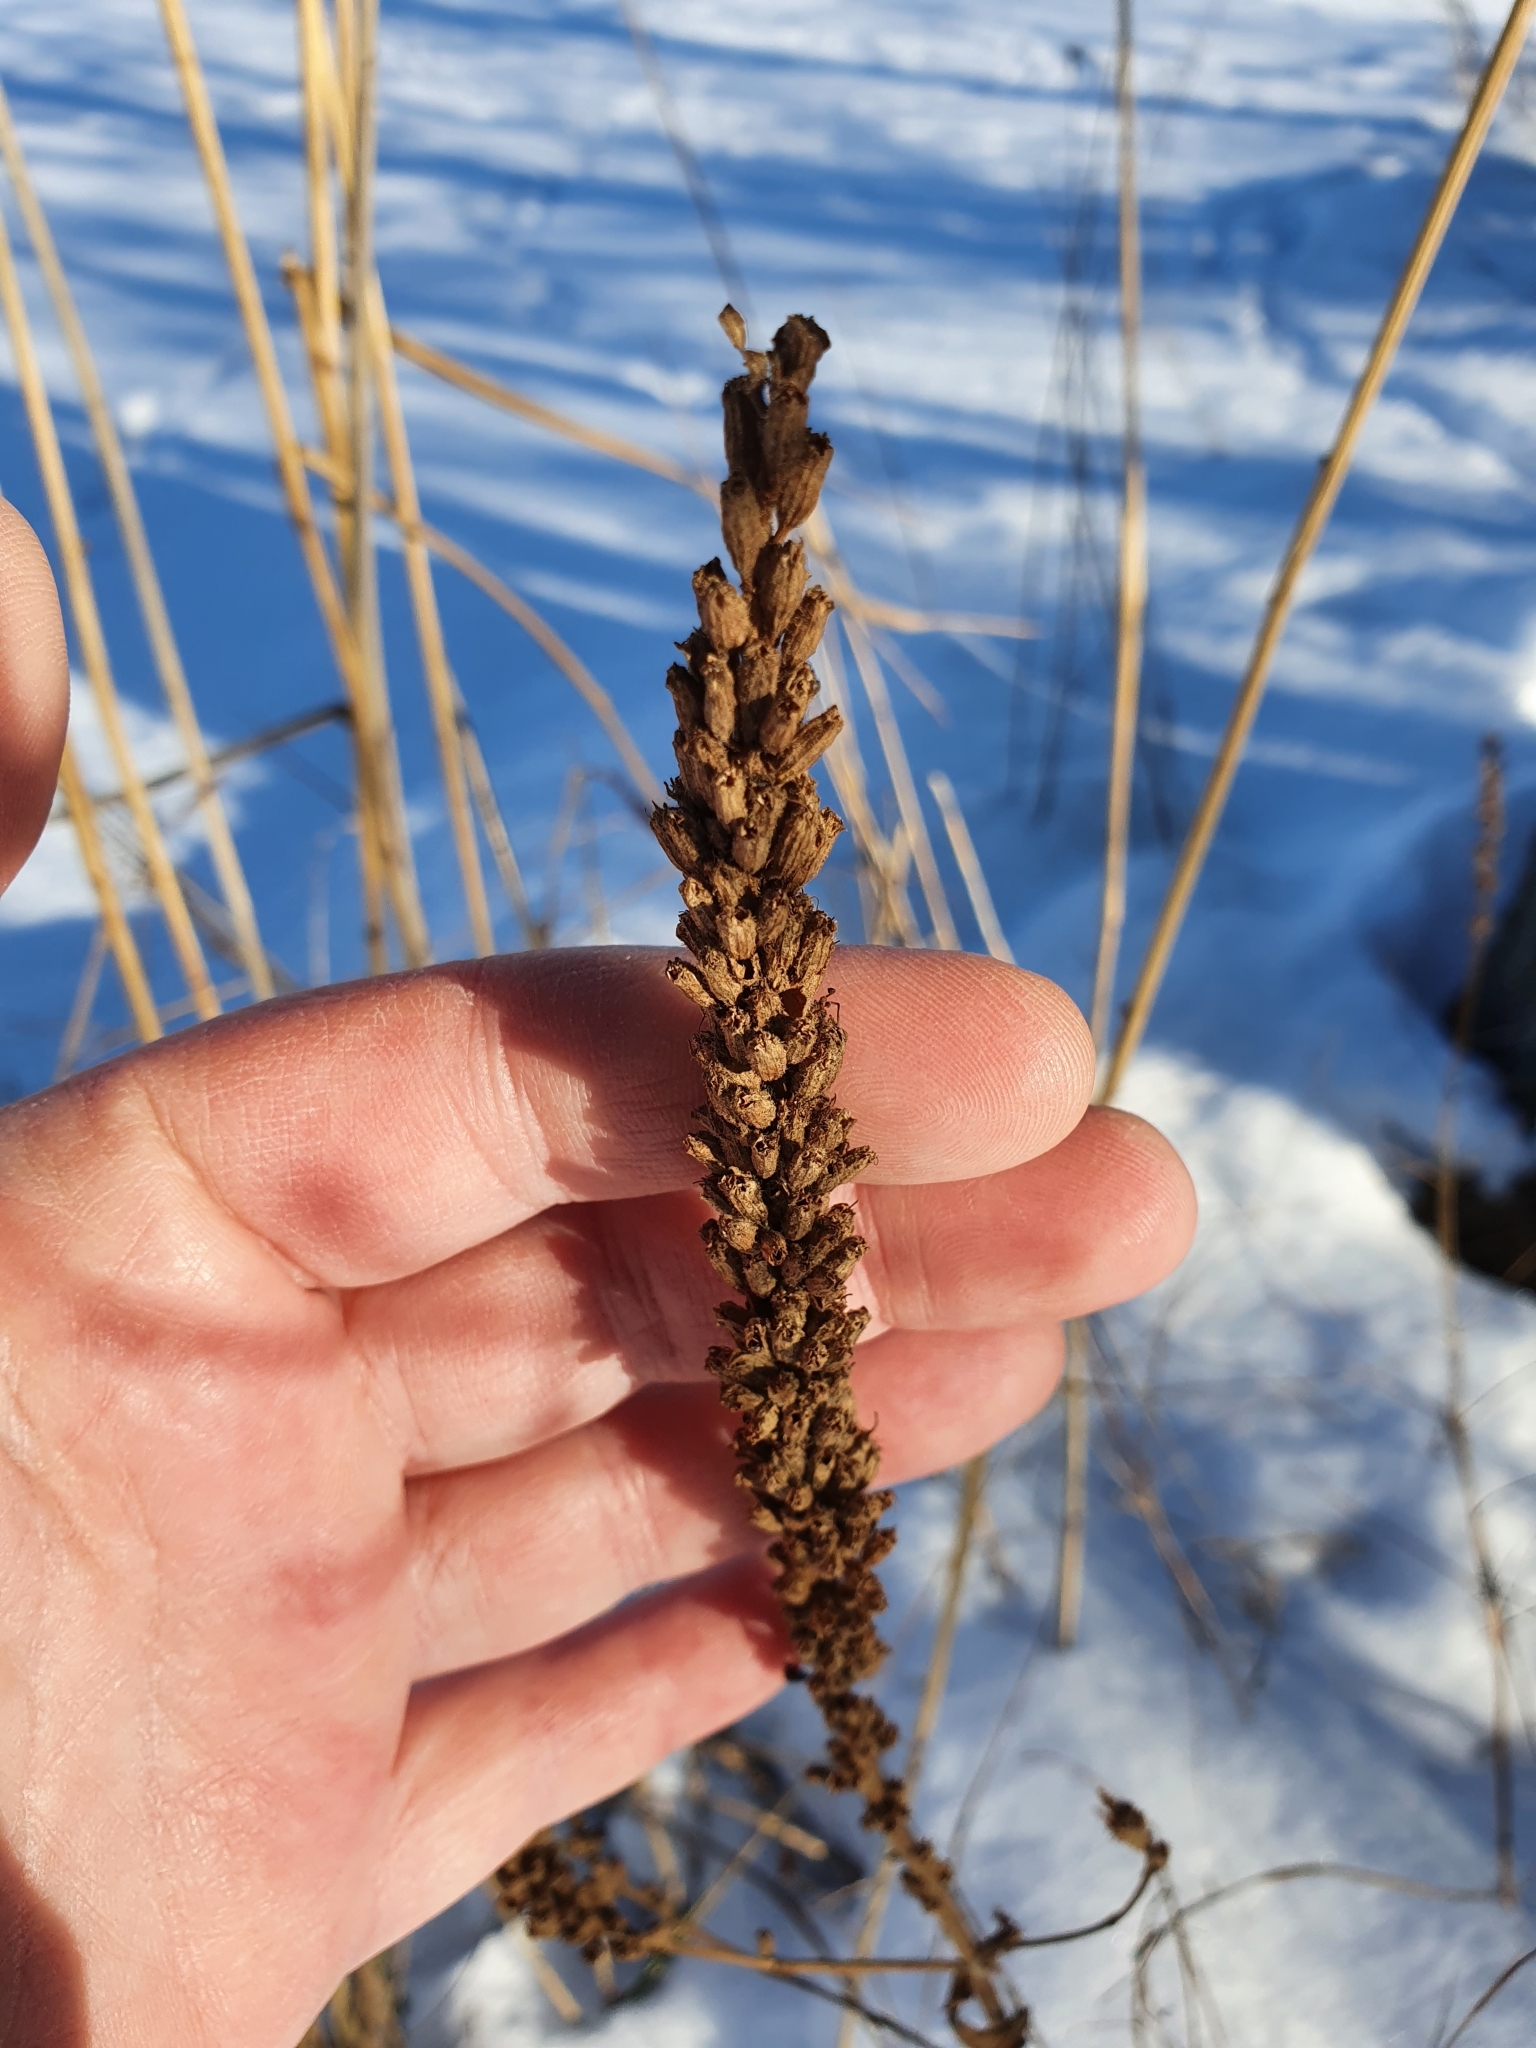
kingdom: Plantae
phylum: Tracheophyta
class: Magnoliopsida
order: Myrtales
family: Lythraceae
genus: Lythrum
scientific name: Lythrum salicaria
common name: Purple loosestrife
